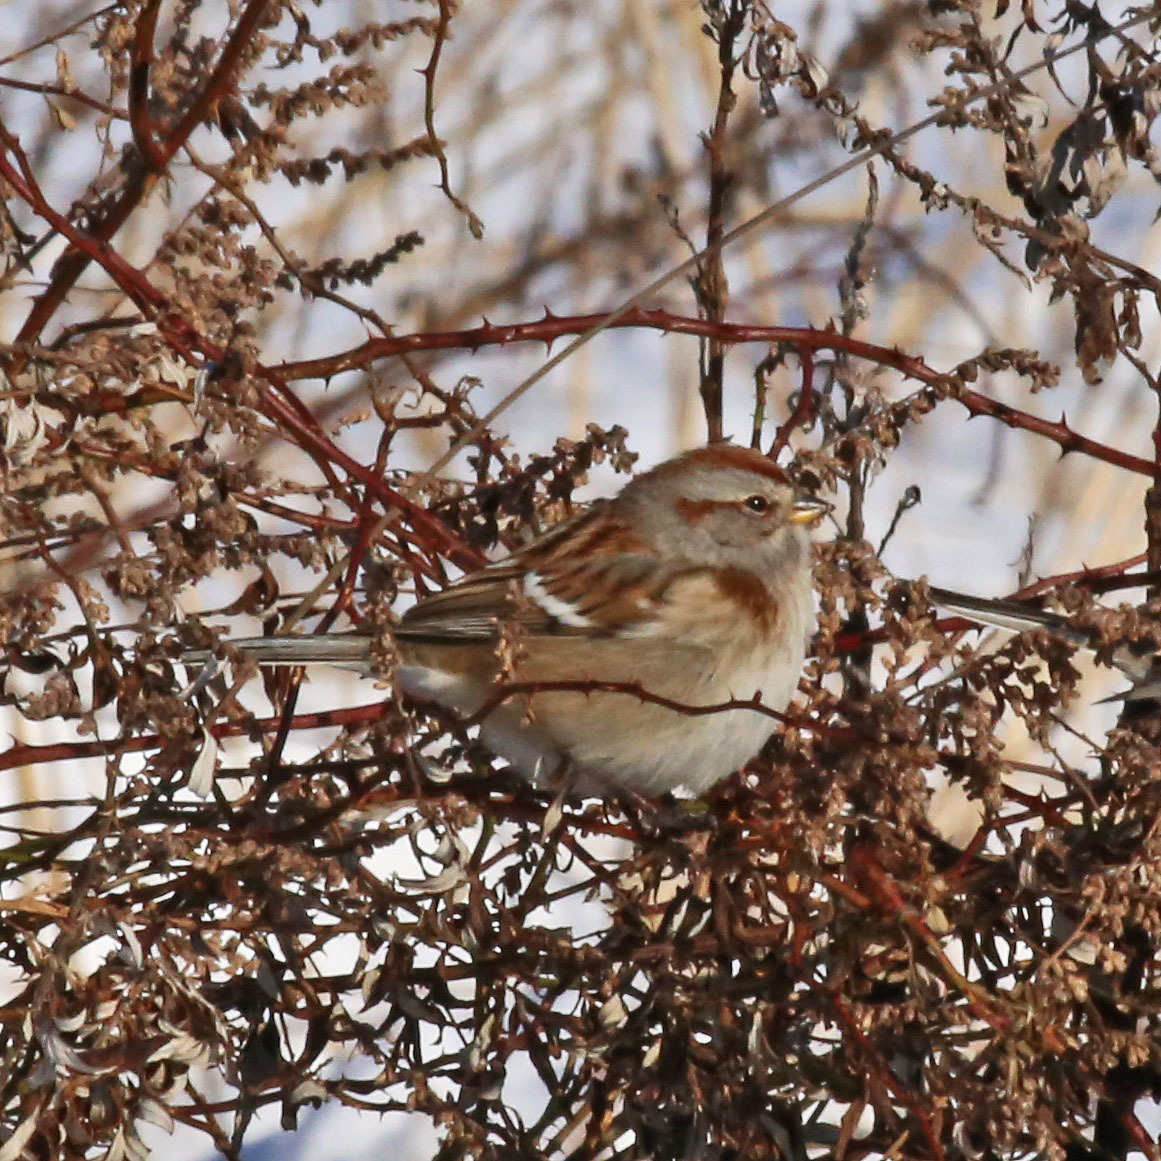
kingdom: Animalia
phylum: Chordata
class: Aves
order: Passeriformes
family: Passerellidae
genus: Spizelloides
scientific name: Spizelloides arborea
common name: American tree sparrow
